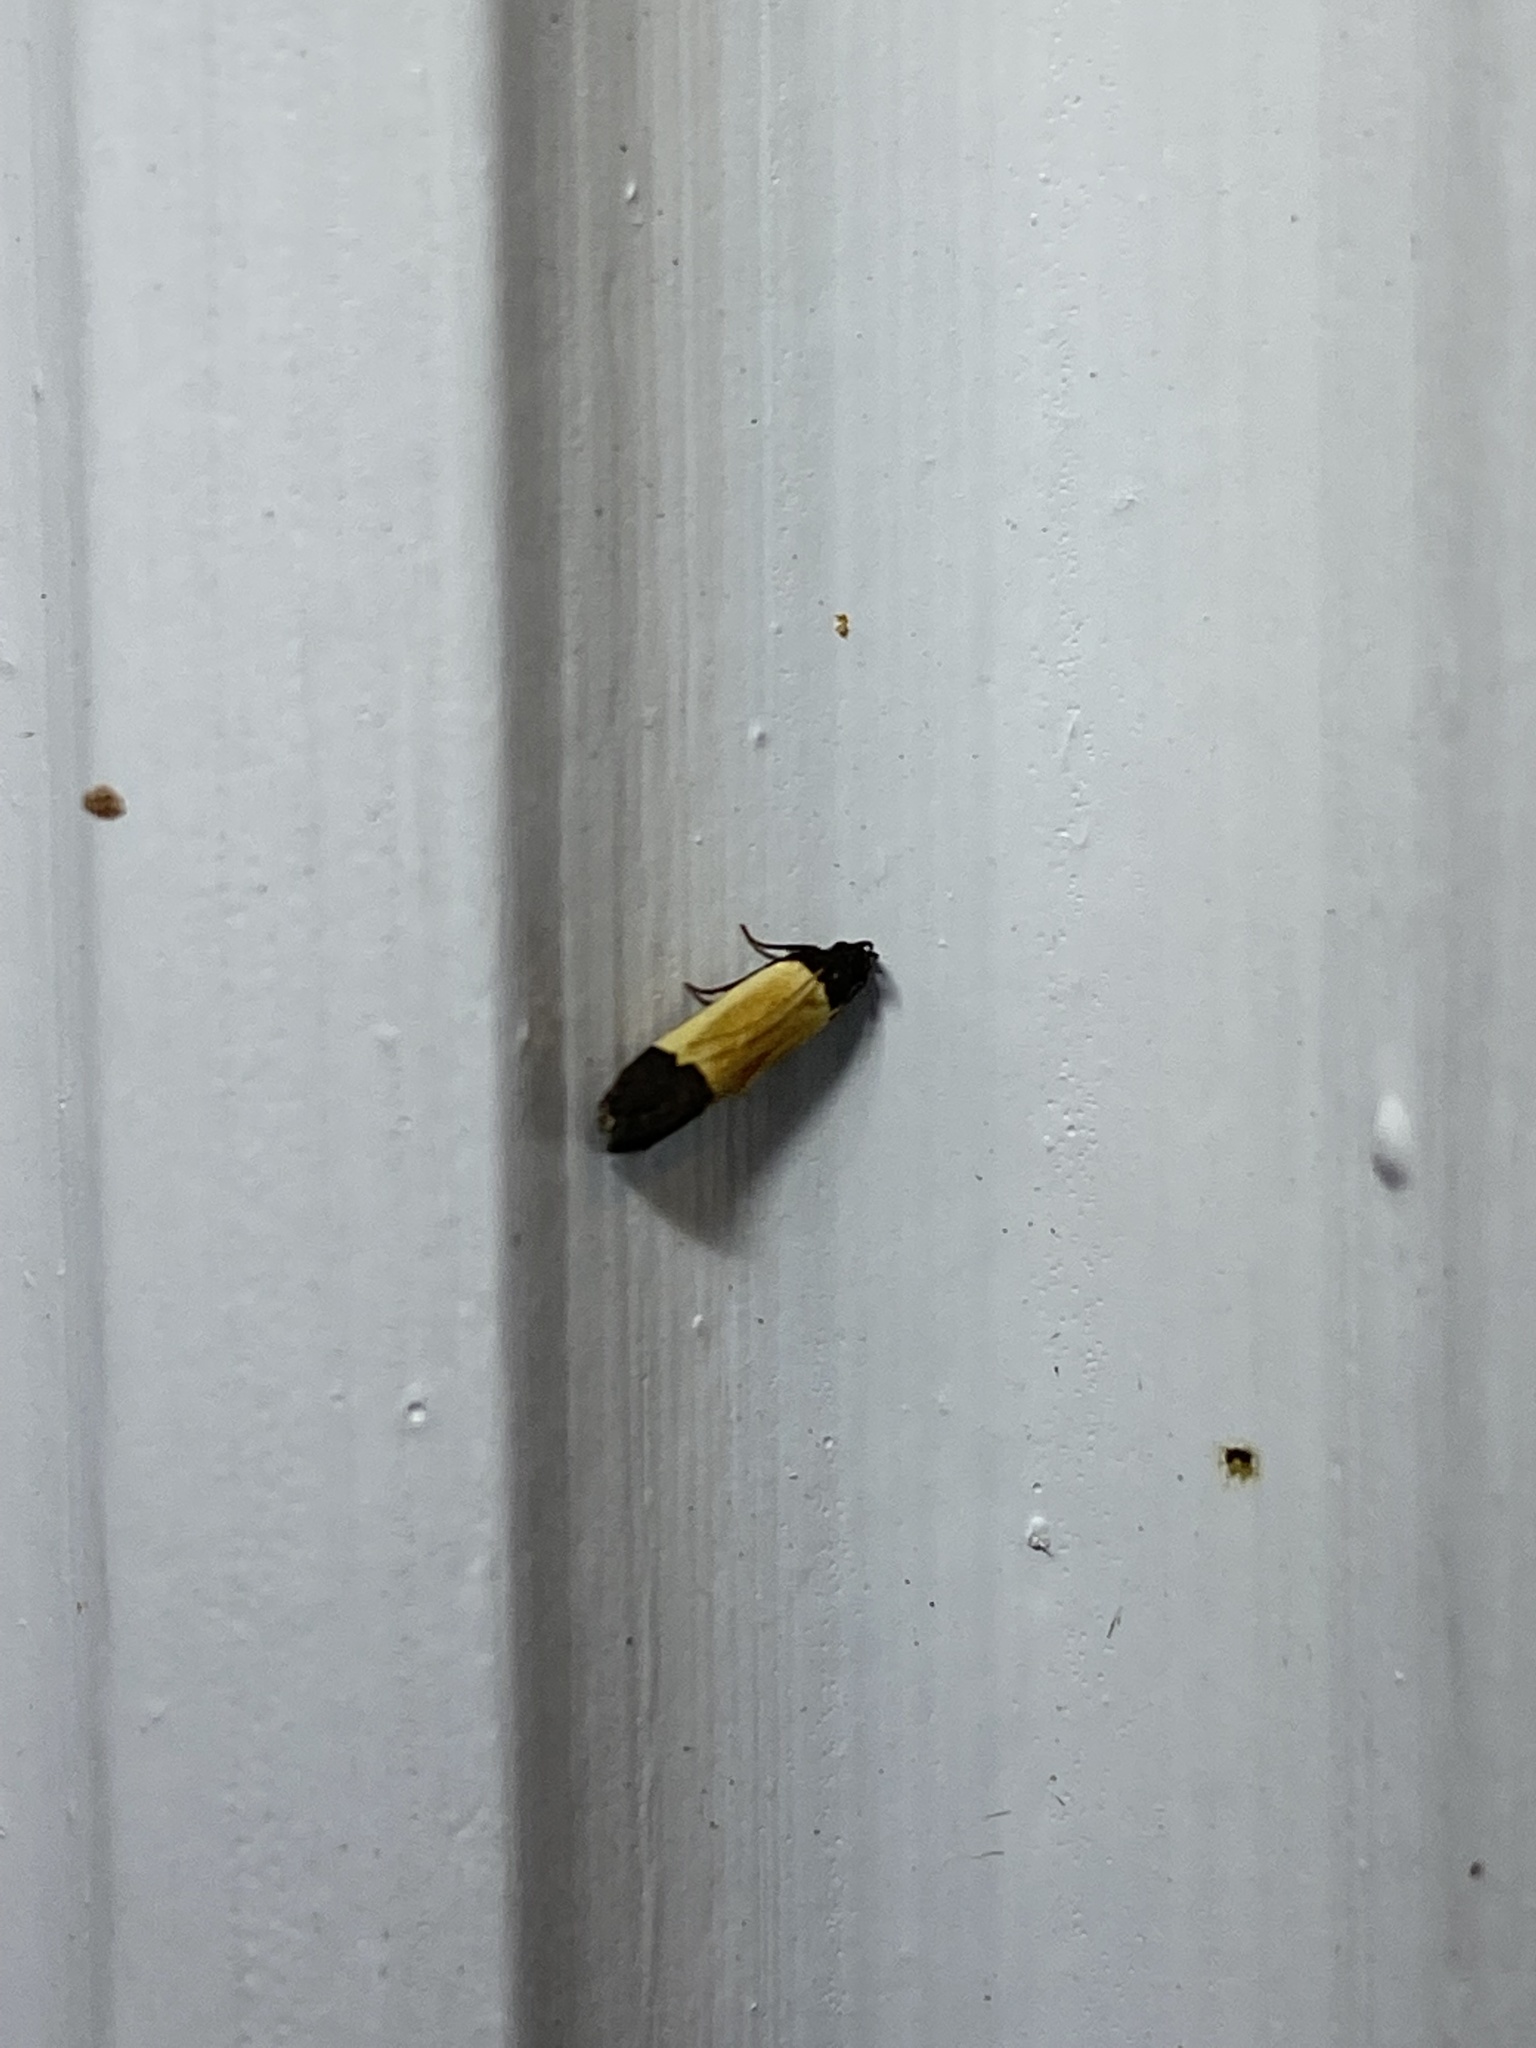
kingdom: Animalia
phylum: Arthropoda
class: Insecta
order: Lepidoptera
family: Gelechiidae
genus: Anacampsis
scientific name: Anacampsis coverdalella
